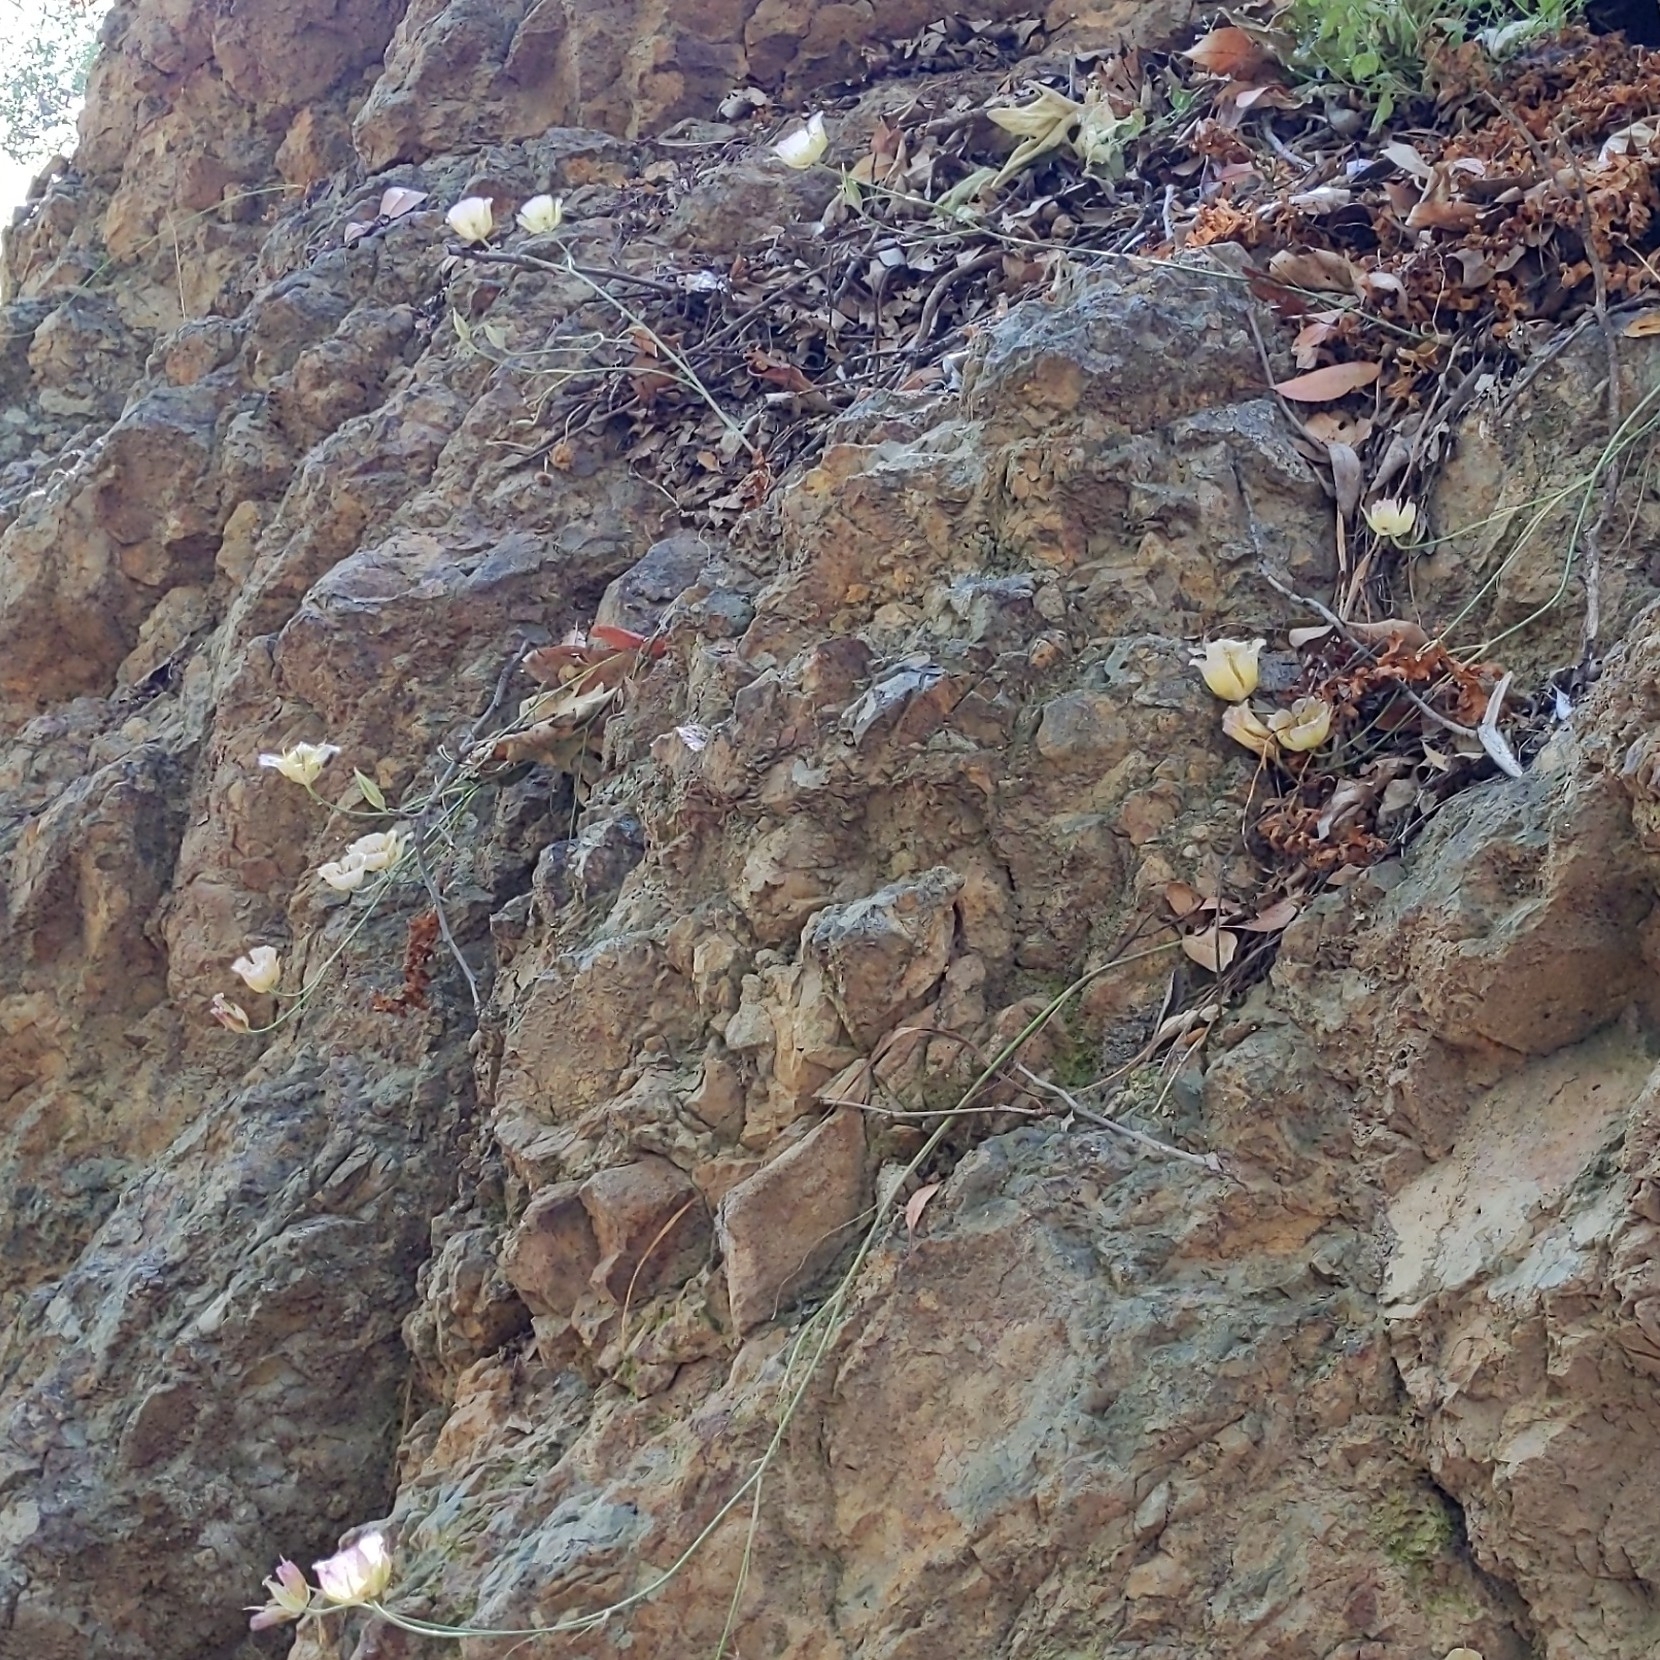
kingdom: Plantae
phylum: Tracheophyta
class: Liliopsida
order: Liliales
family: Liliaceae
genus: Calochortus
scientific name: Calochortus weedii
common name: Weed's mariposa-lily
